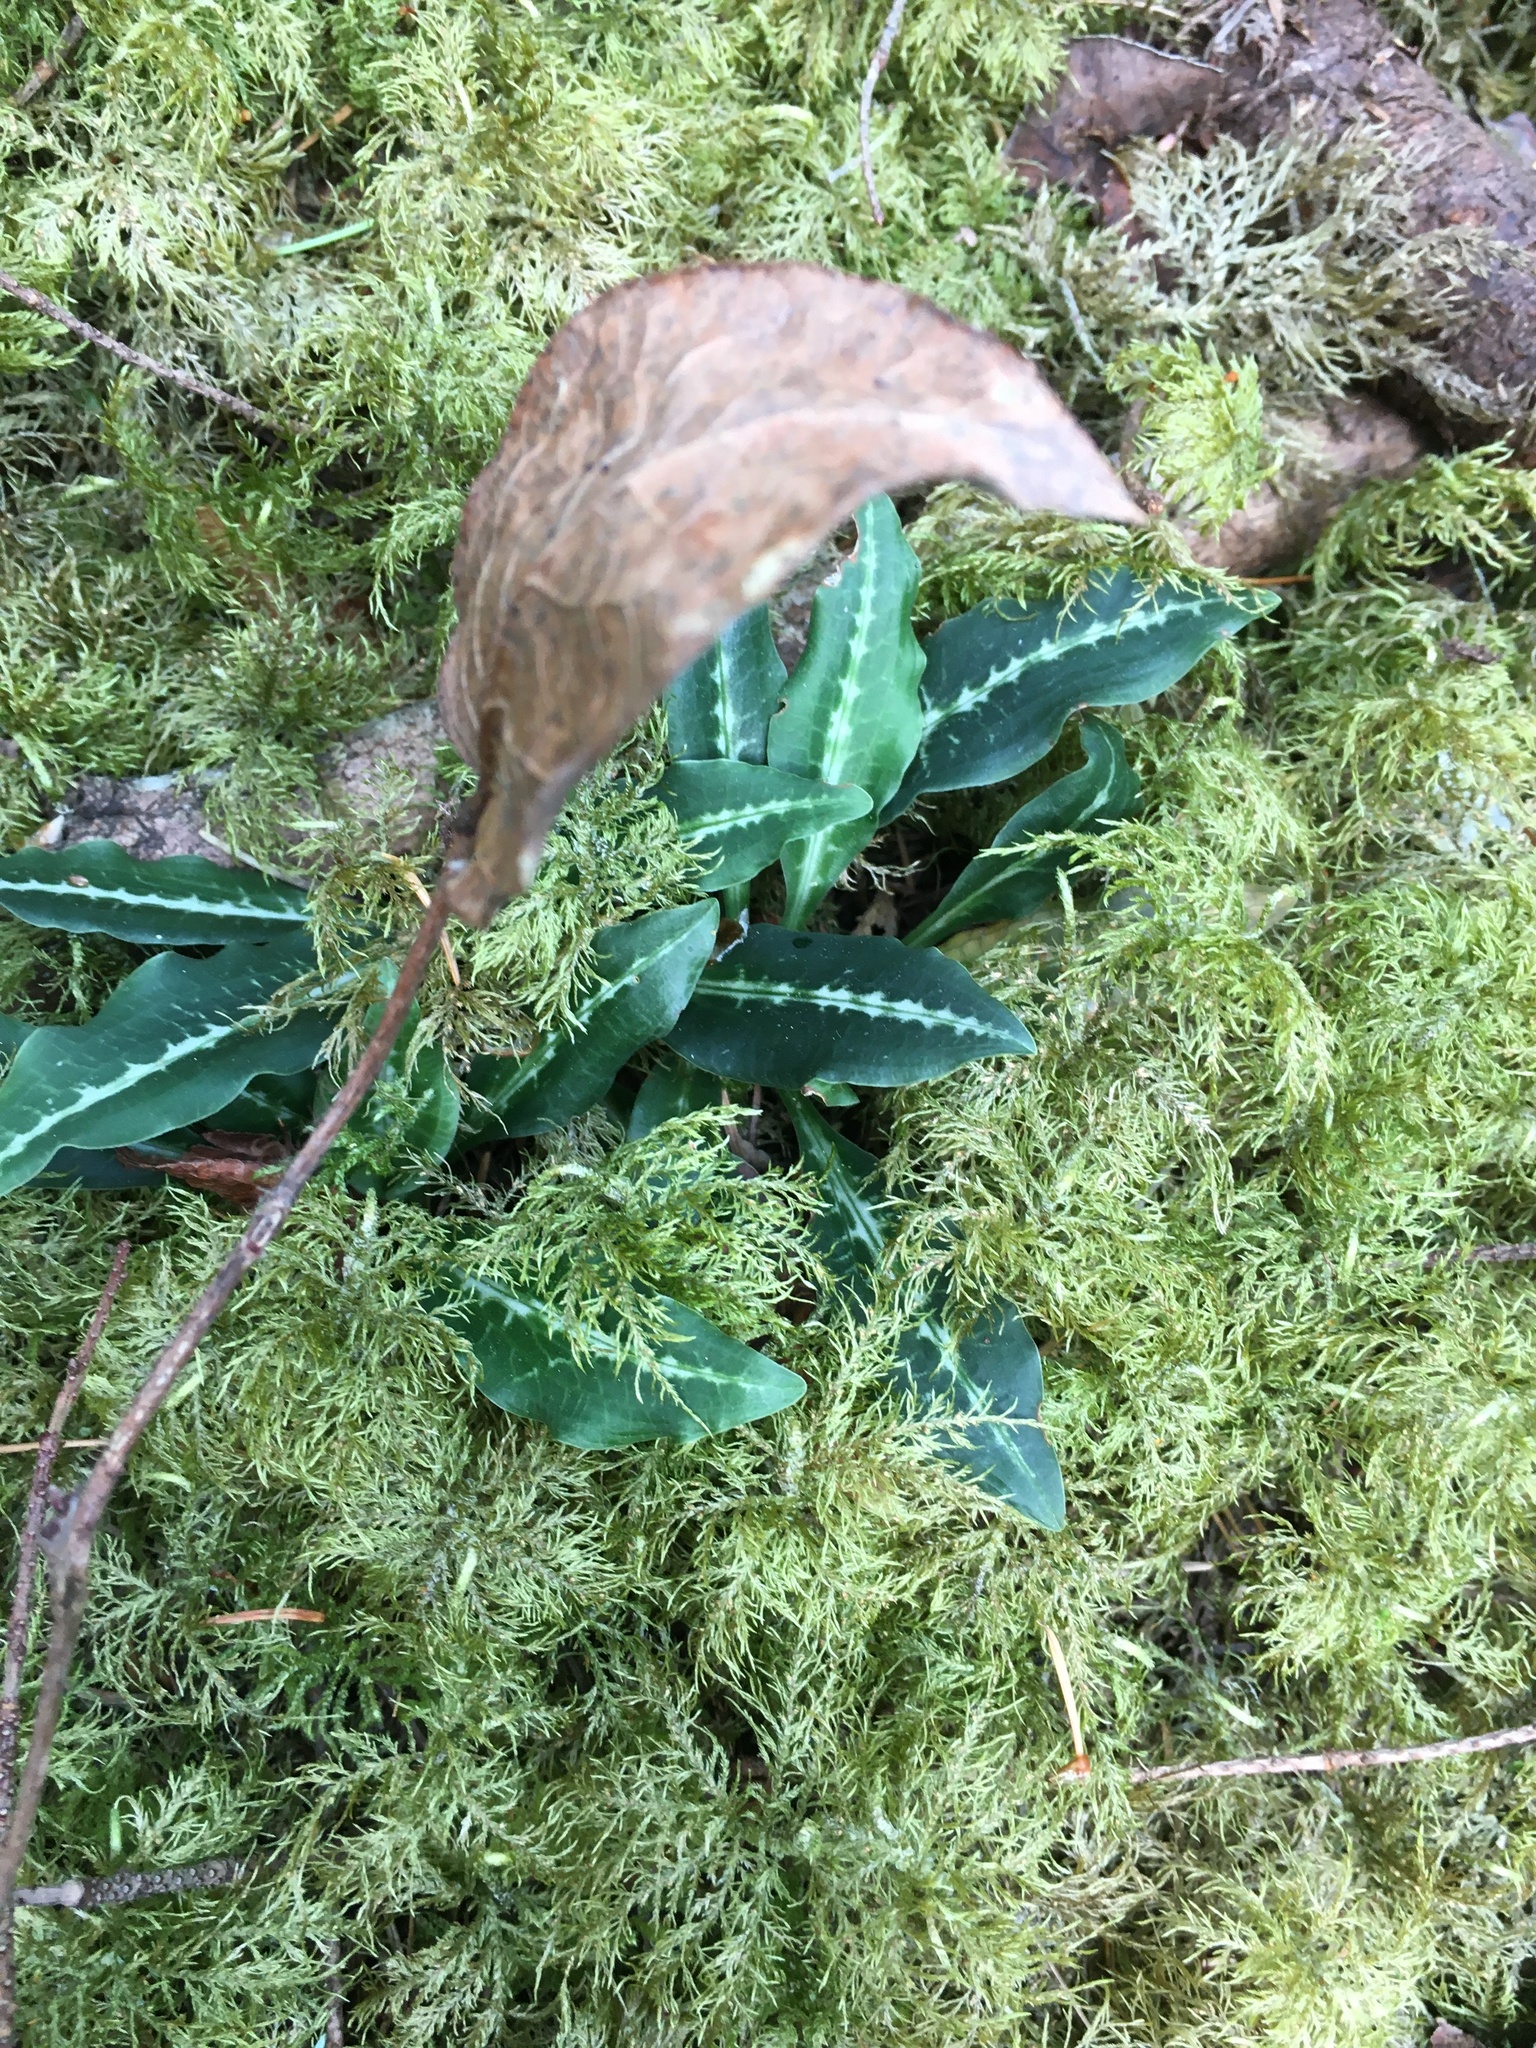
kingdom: Plantae
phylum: Tracheophyta
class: Liliopsida
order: Asparagales
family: Orchidaceae
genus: Goodyera
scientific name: Goodyera oblongifolia
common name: Giant rattlesnake-plantain
